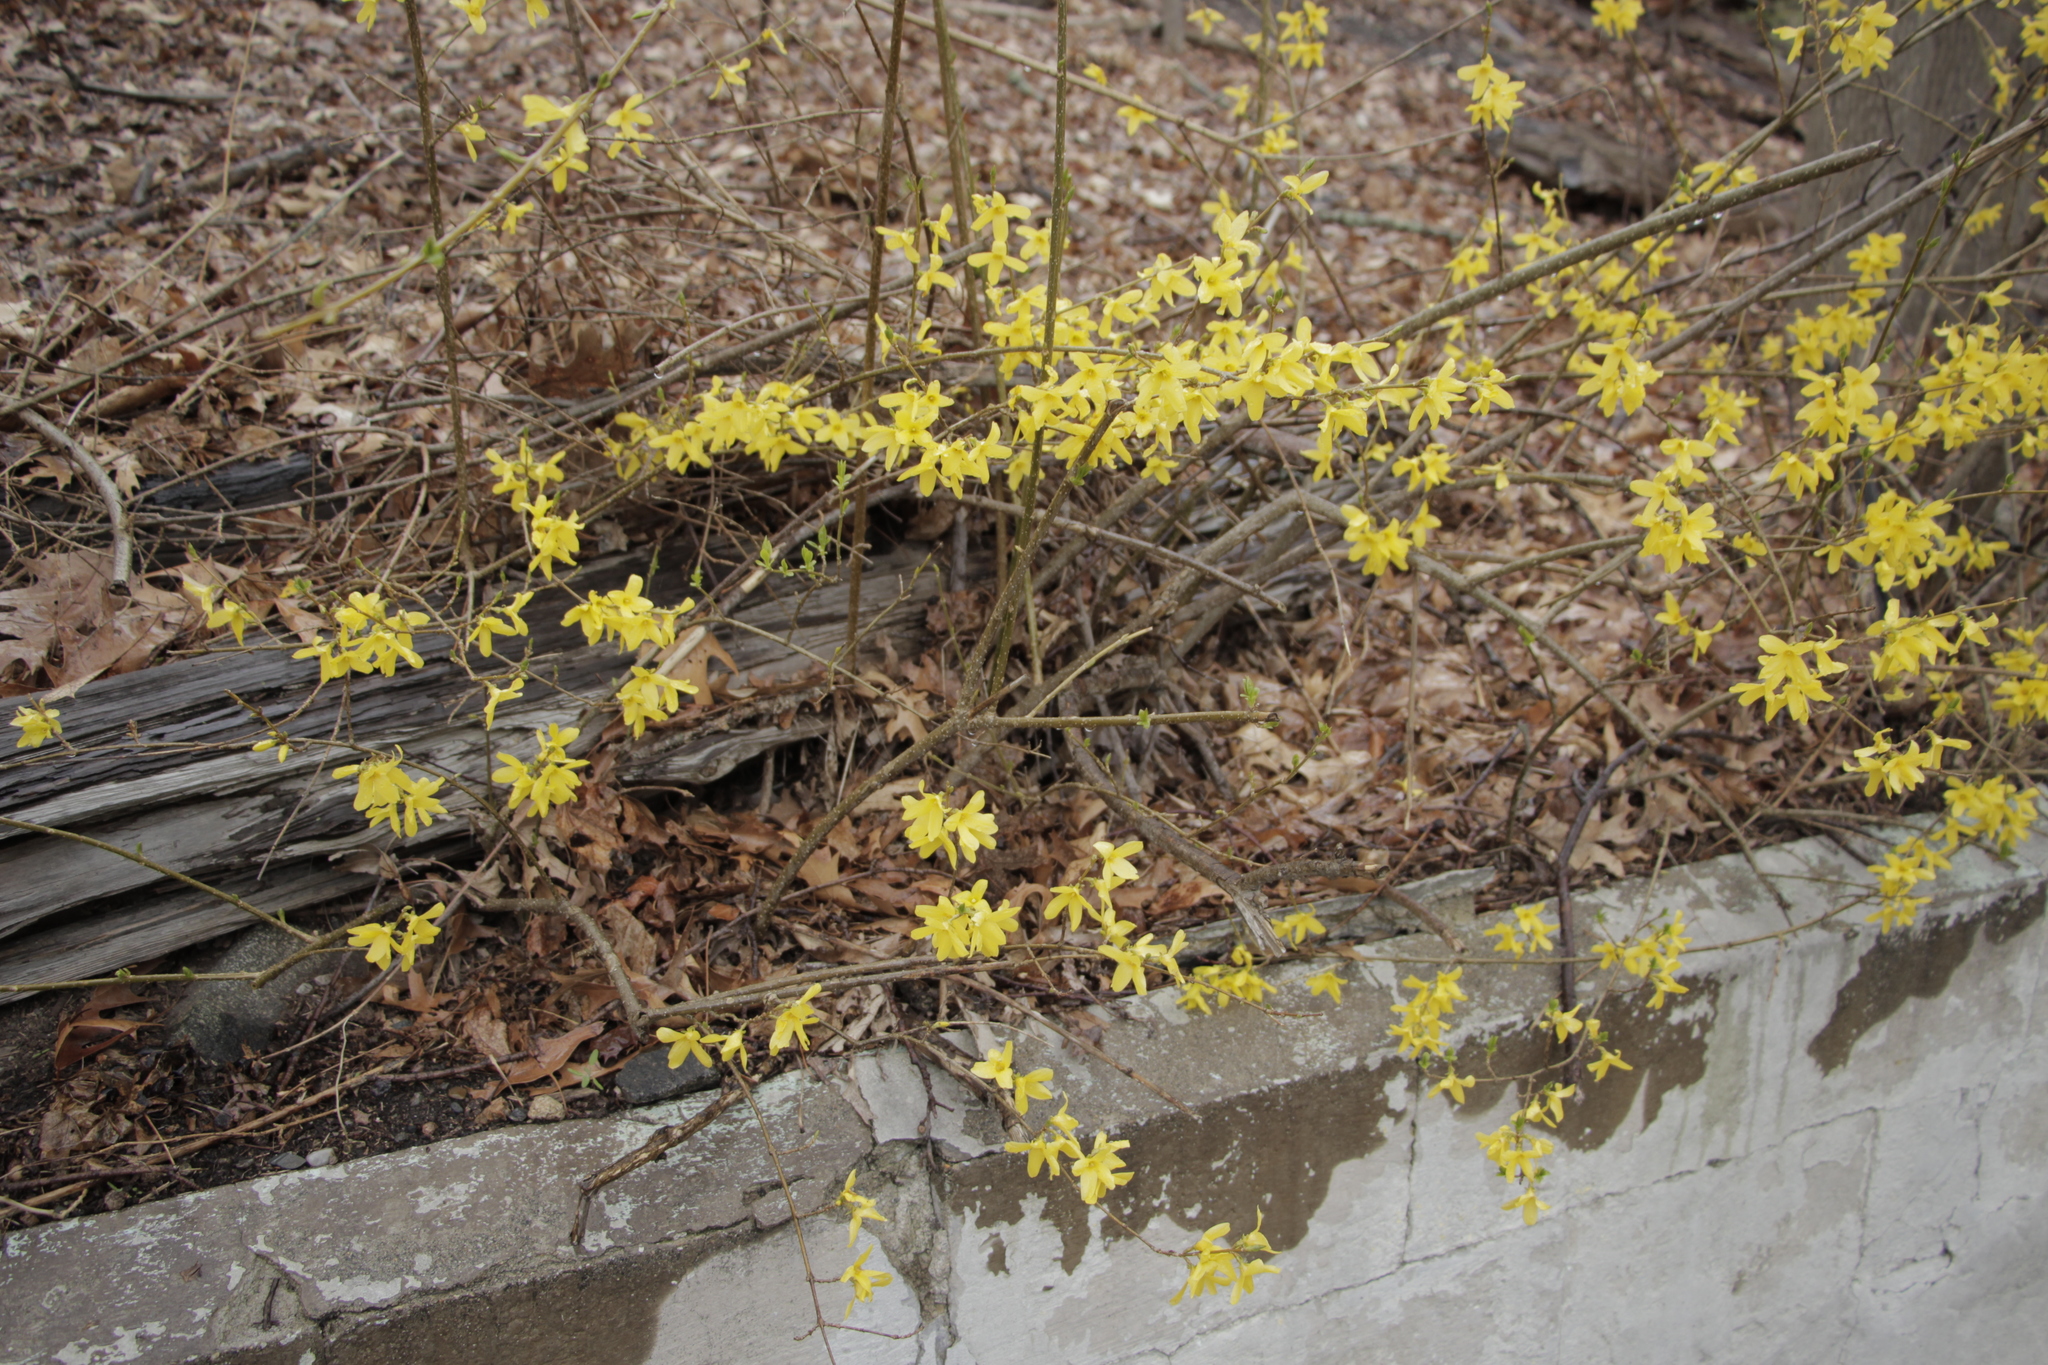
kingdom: Plantae
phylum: Tracheophyta
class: Magnoliopsida
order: Lamiales
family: Oleaceae
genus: Forsythia
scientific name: Forsythia
